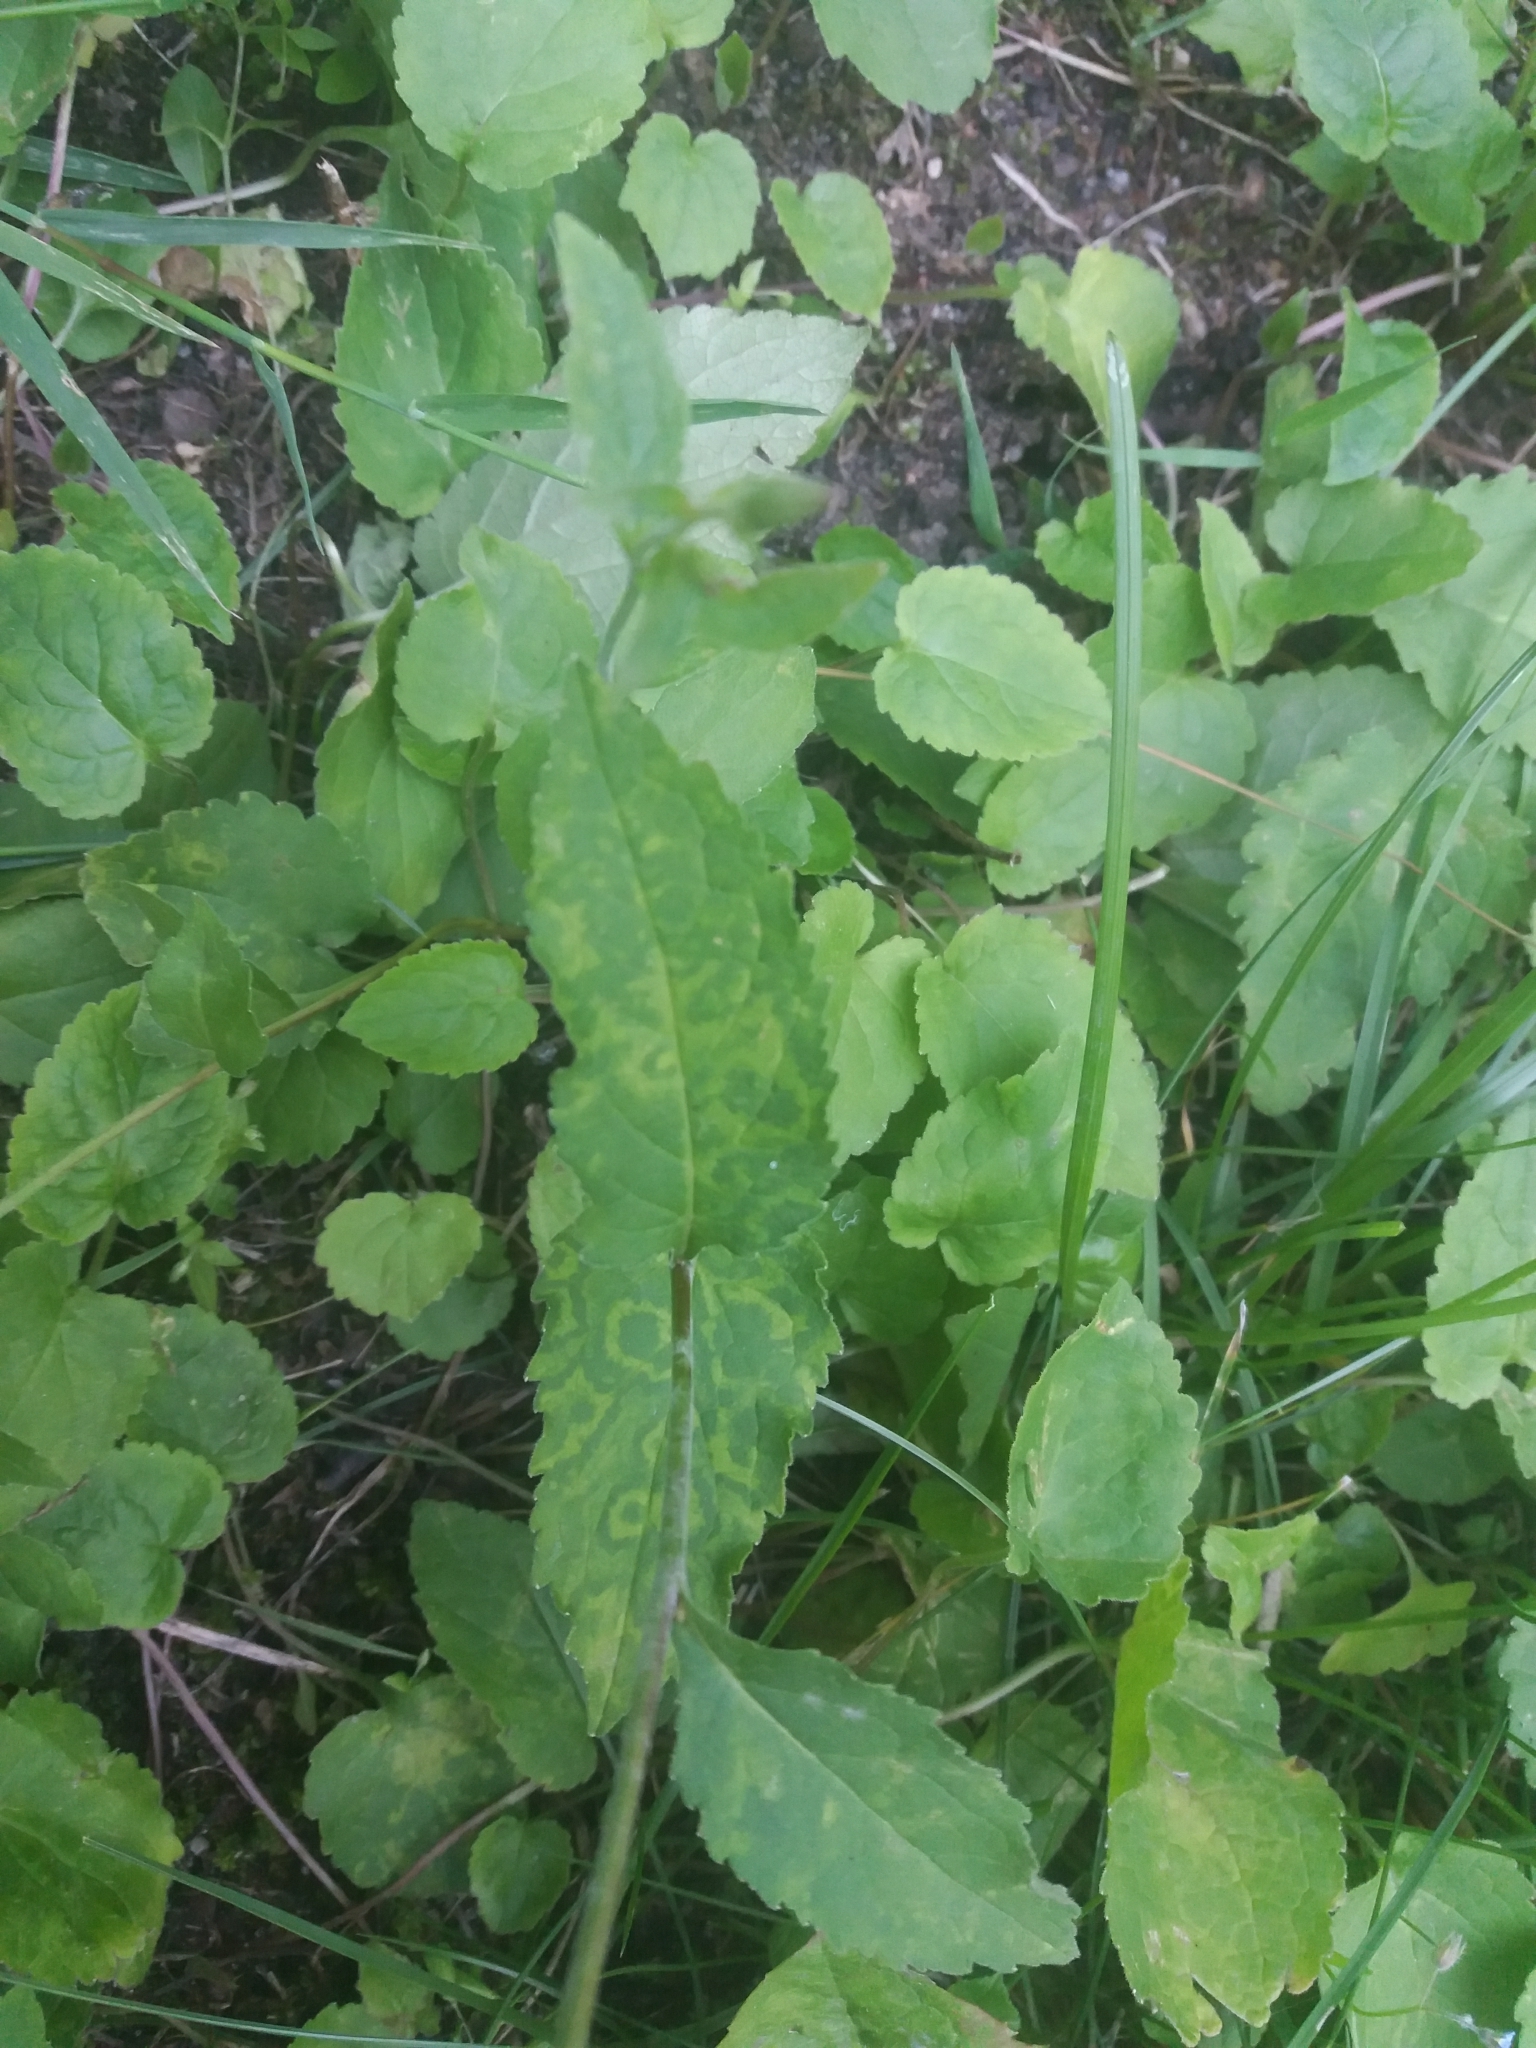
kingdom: Plantae
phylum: Tracheophyta
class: Magnoliopsida
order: Asterales
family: Campanulaceae
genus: Campanula
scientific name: Campanula rapunculoides
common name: Creeping bellflower
